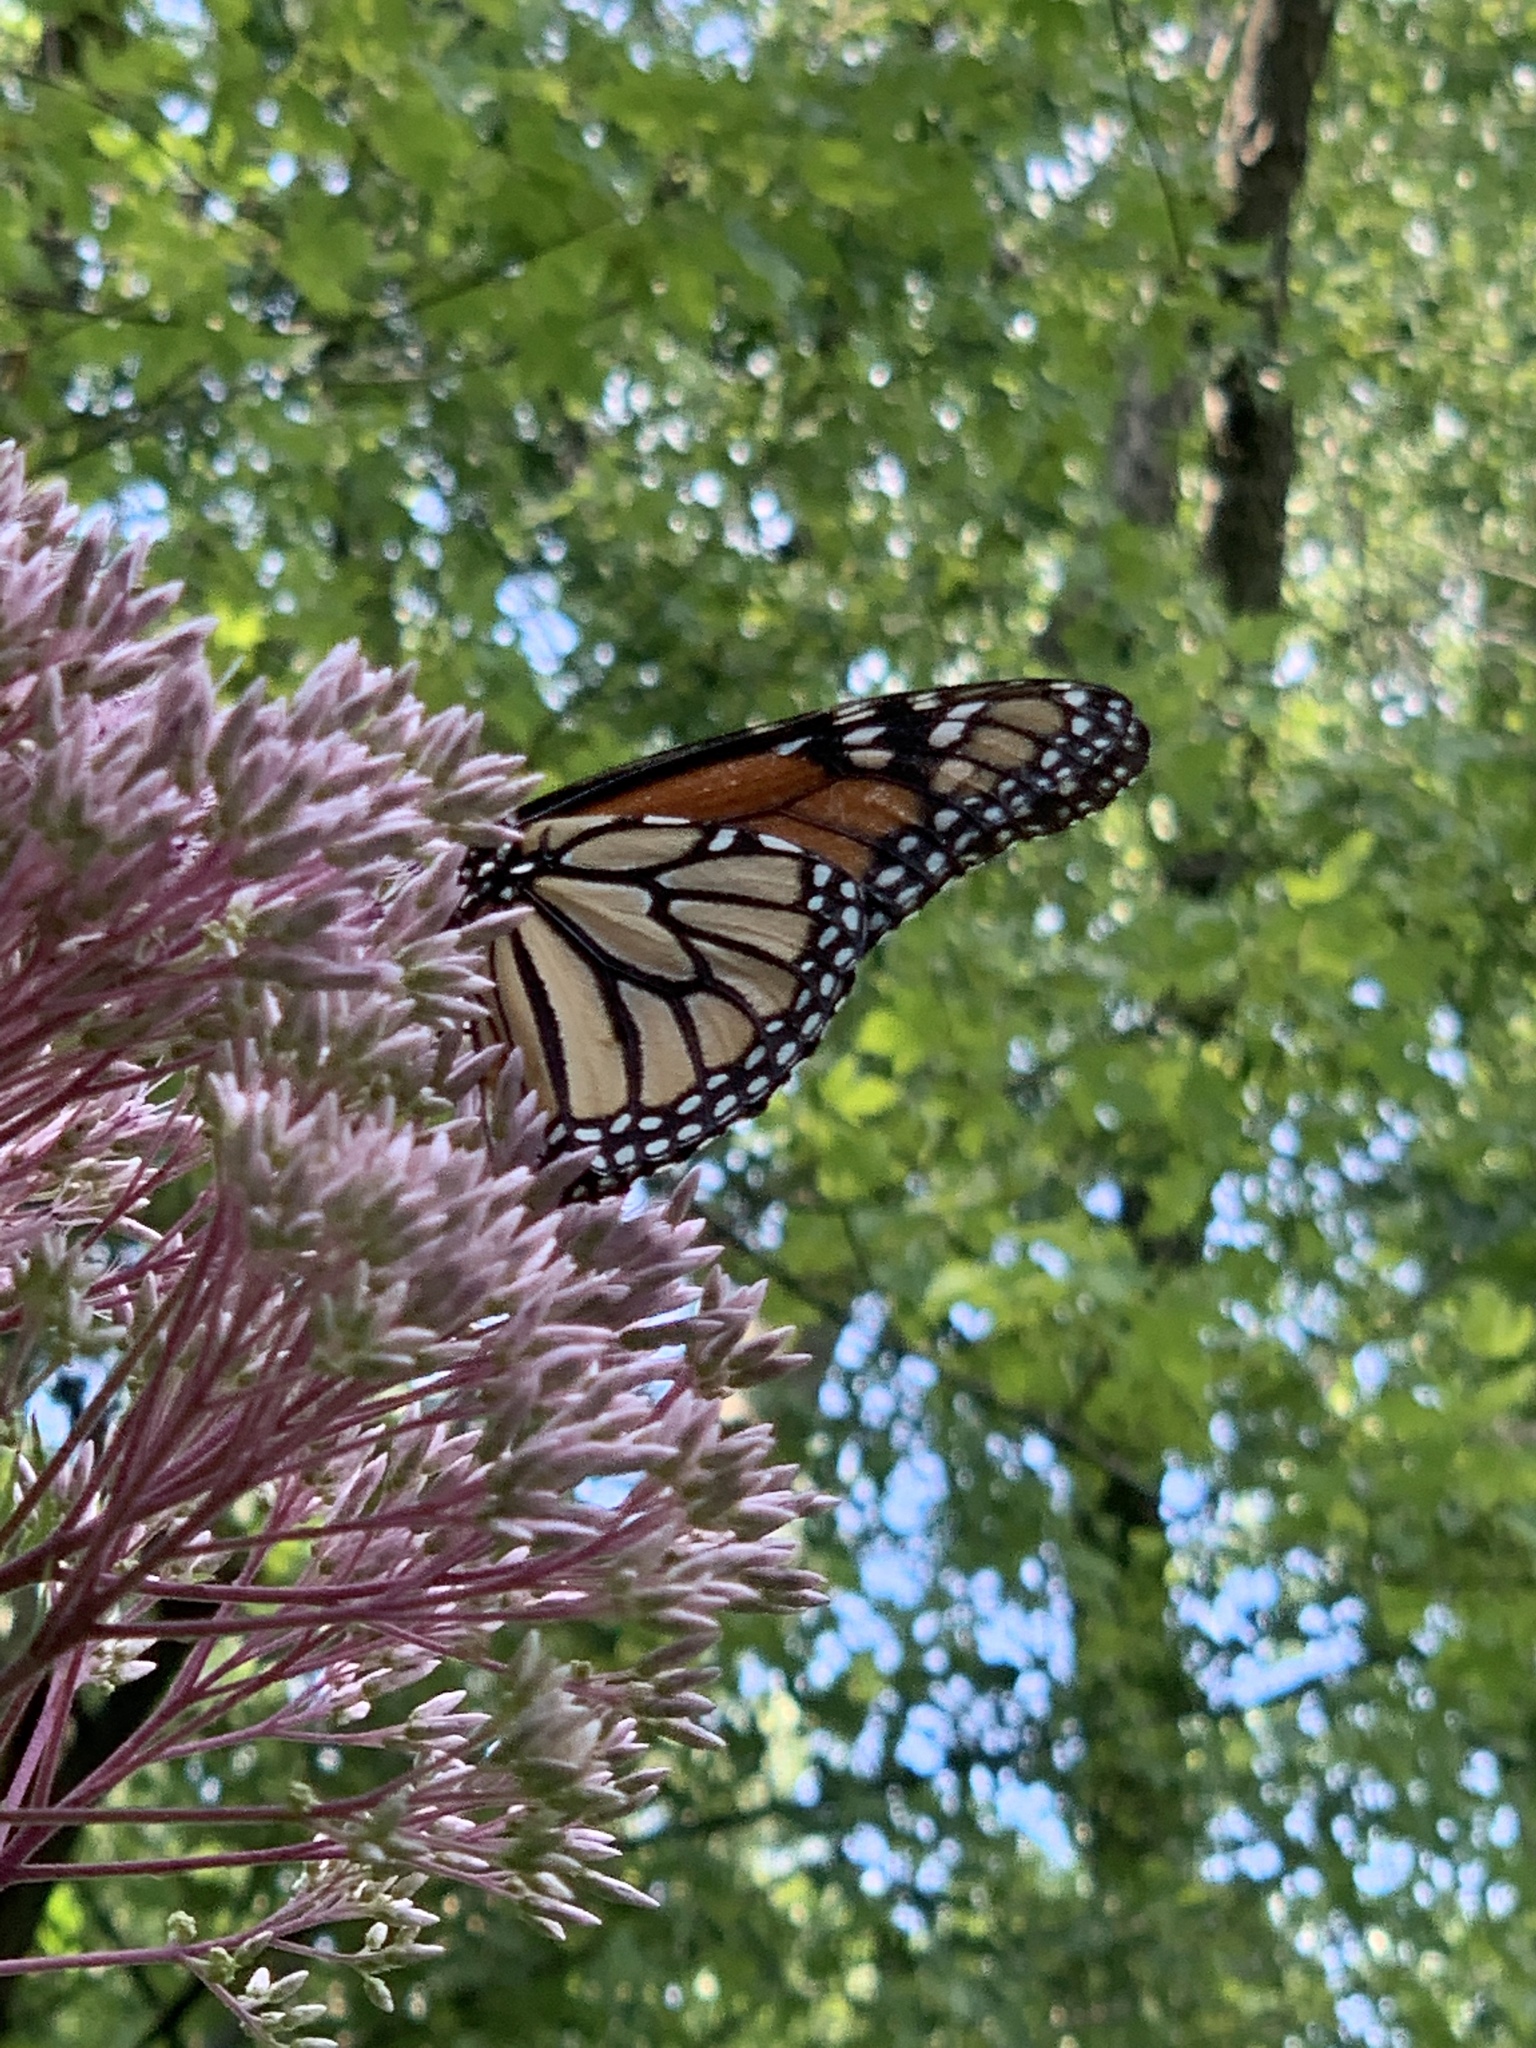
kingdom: Animalia
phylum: Arthropoda
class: Insecta
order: Lepidoptera
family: Nymphalidae
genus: Danaus
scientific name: Danaus plexippus
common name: Monarch
